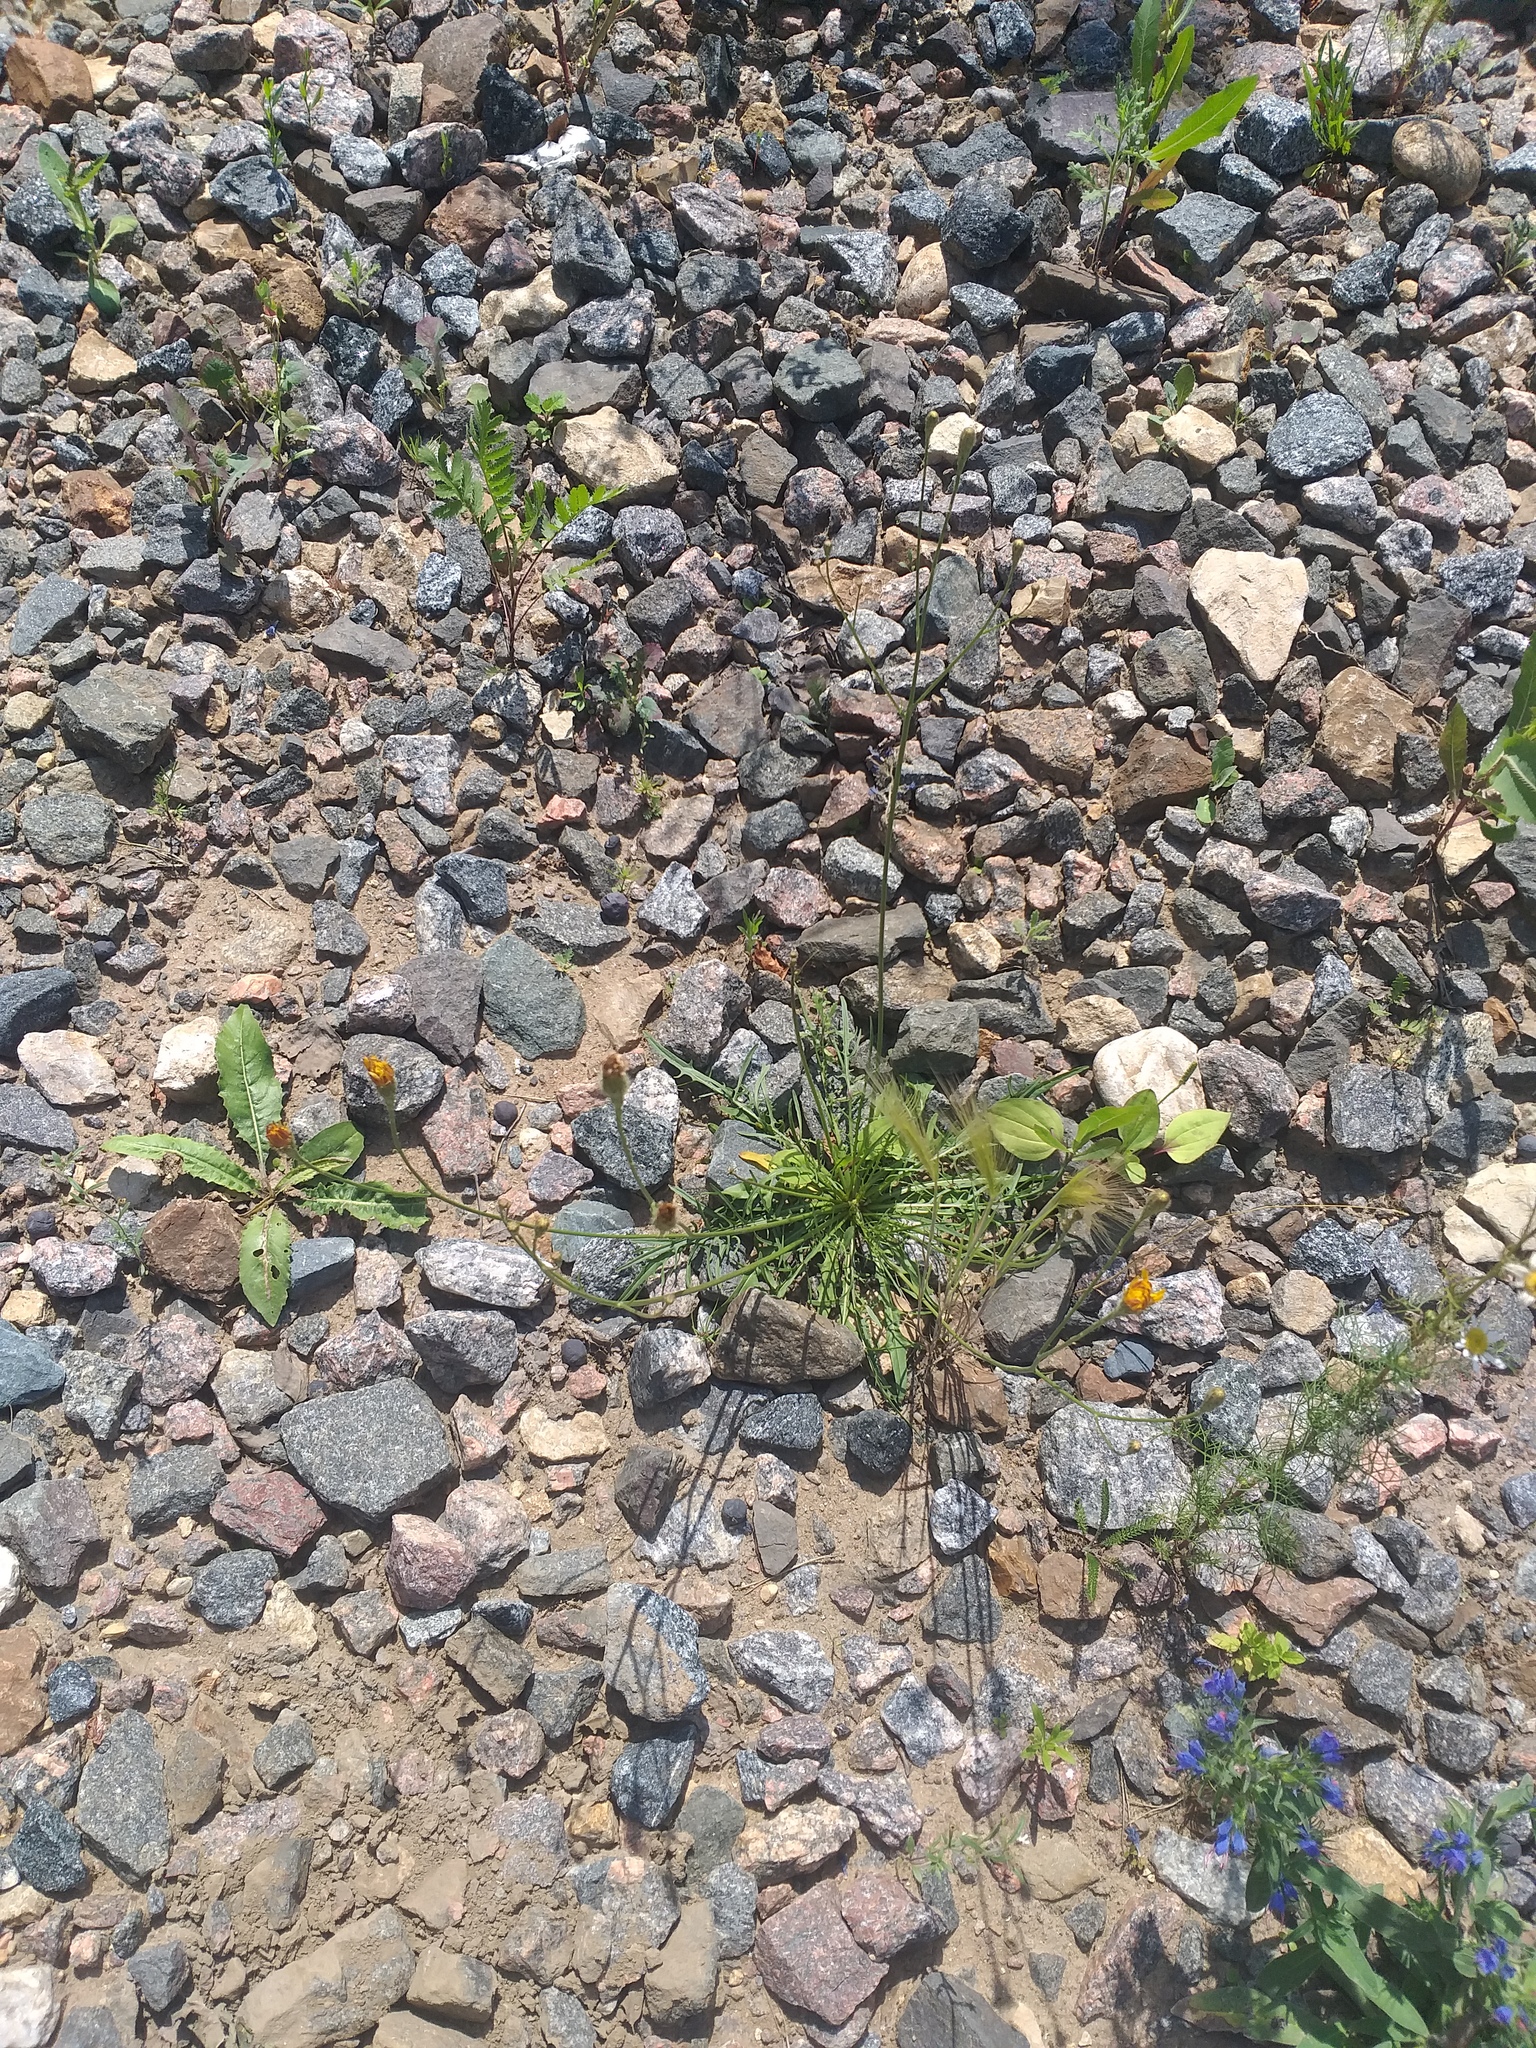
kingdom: Plantae
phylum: Tracheophyta
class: Magnoliopsida
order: Asterales
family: Asteraceae
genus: Scorzoneroides
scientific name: Scorzoneroides autumnalis
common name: Autumn hawkbit
